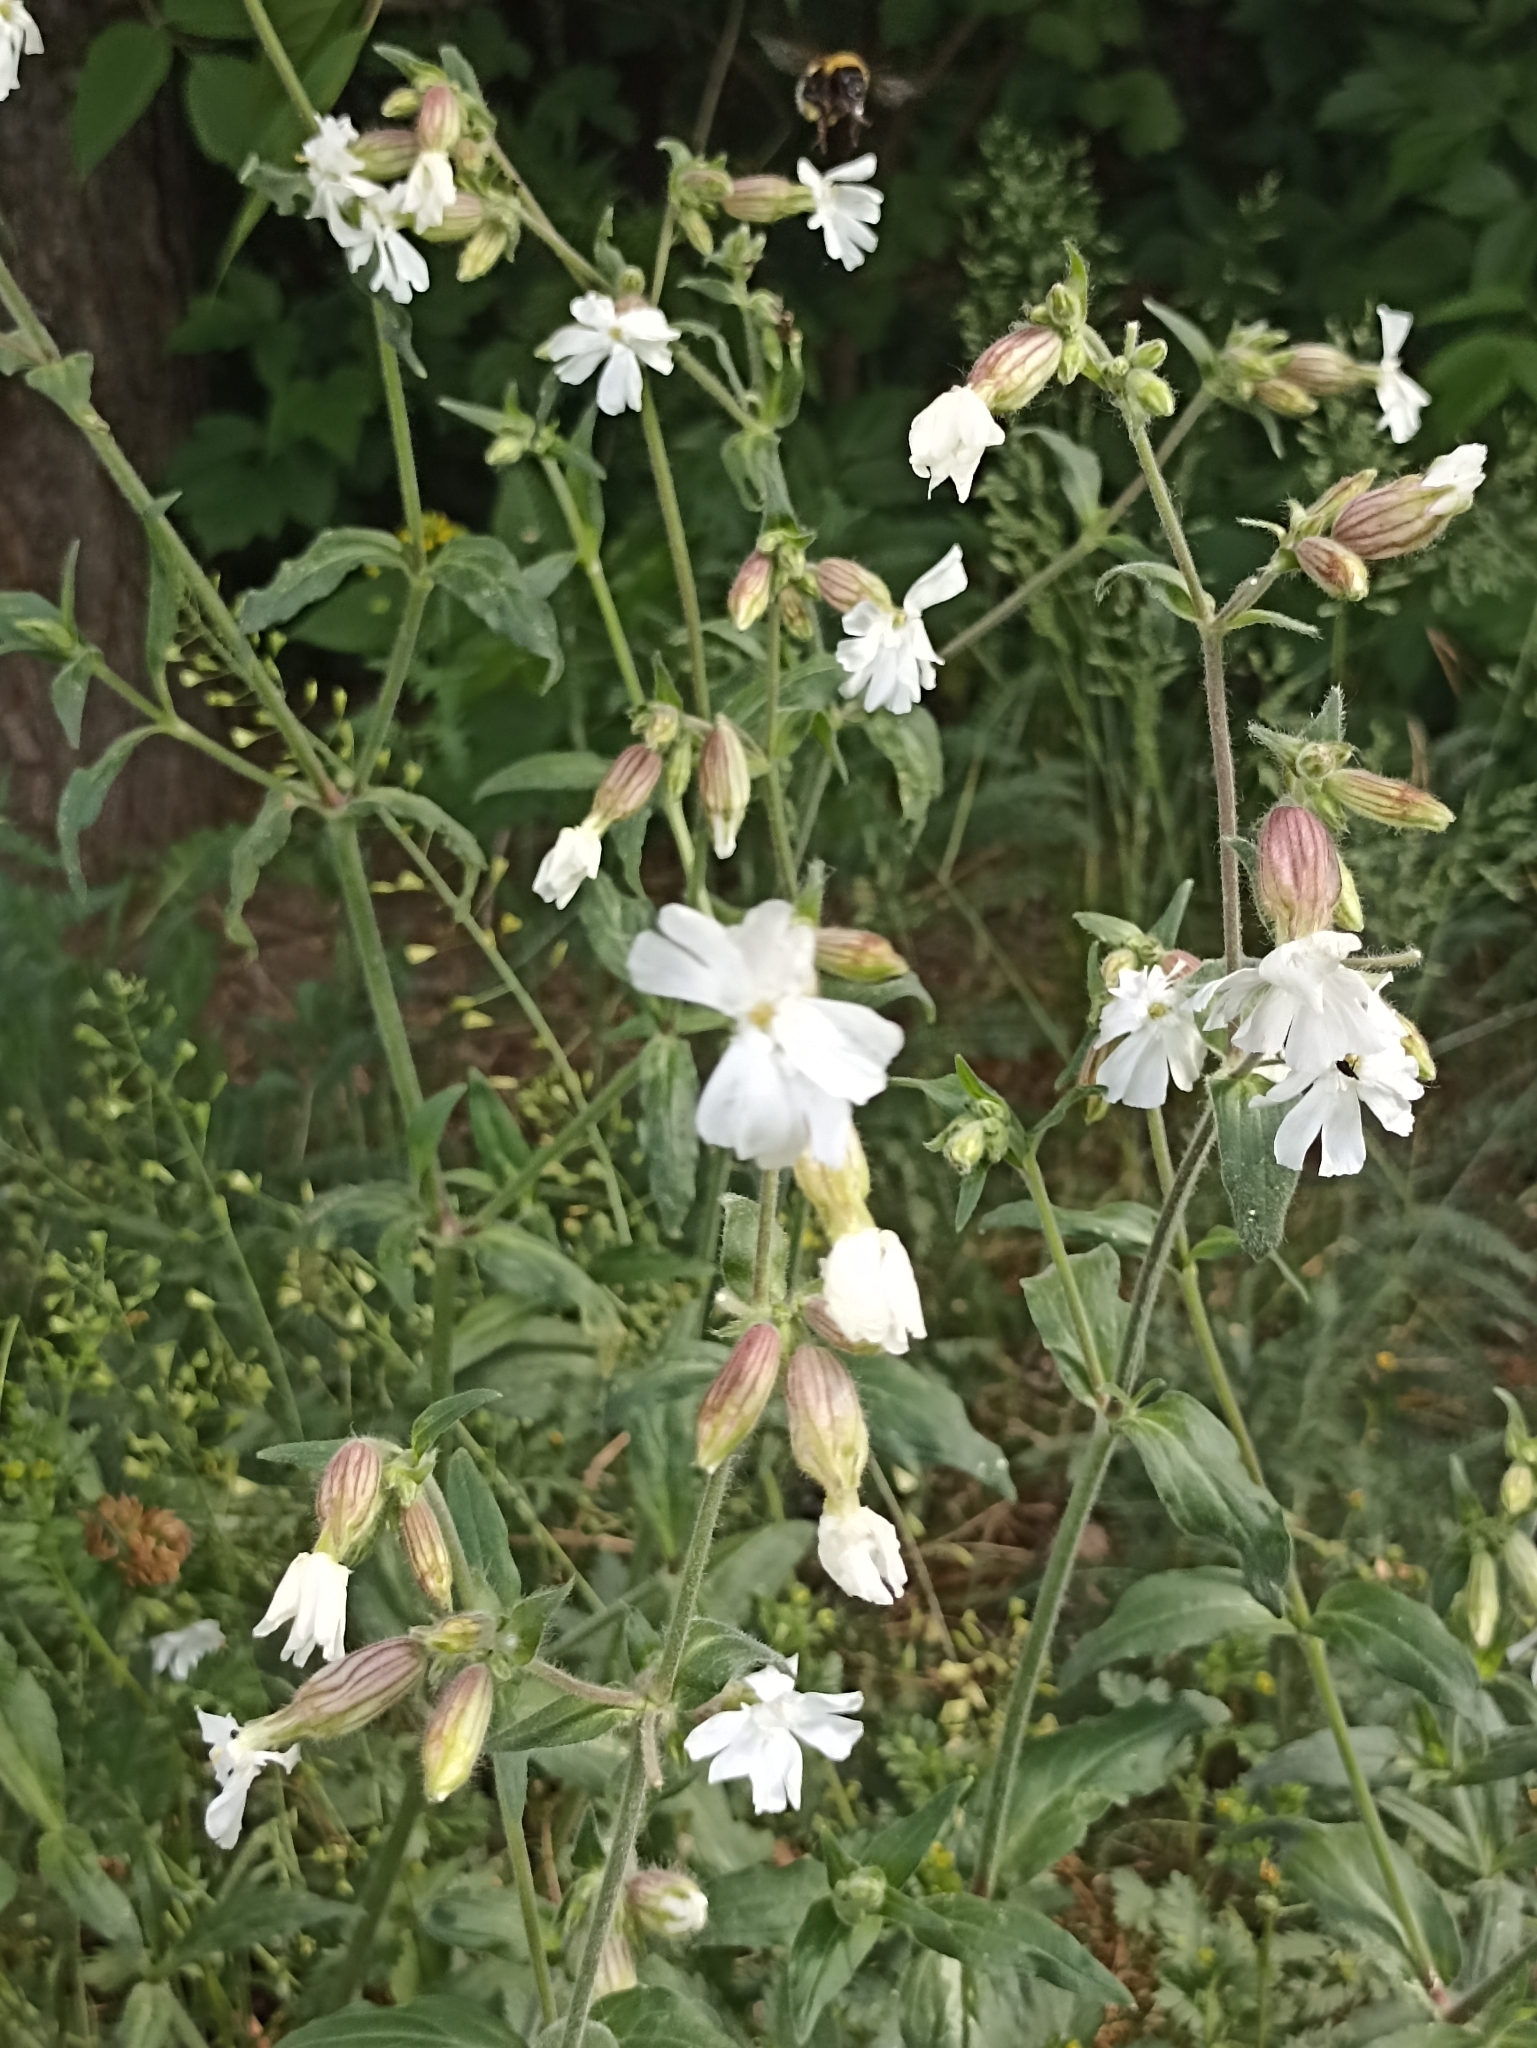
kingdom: Plantae
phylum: Tracheophyta
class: Magnoliopsida
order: Caryophyllales
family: Caryophyllaceae
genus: Silene
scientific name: Silene latifolia
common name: White campion
